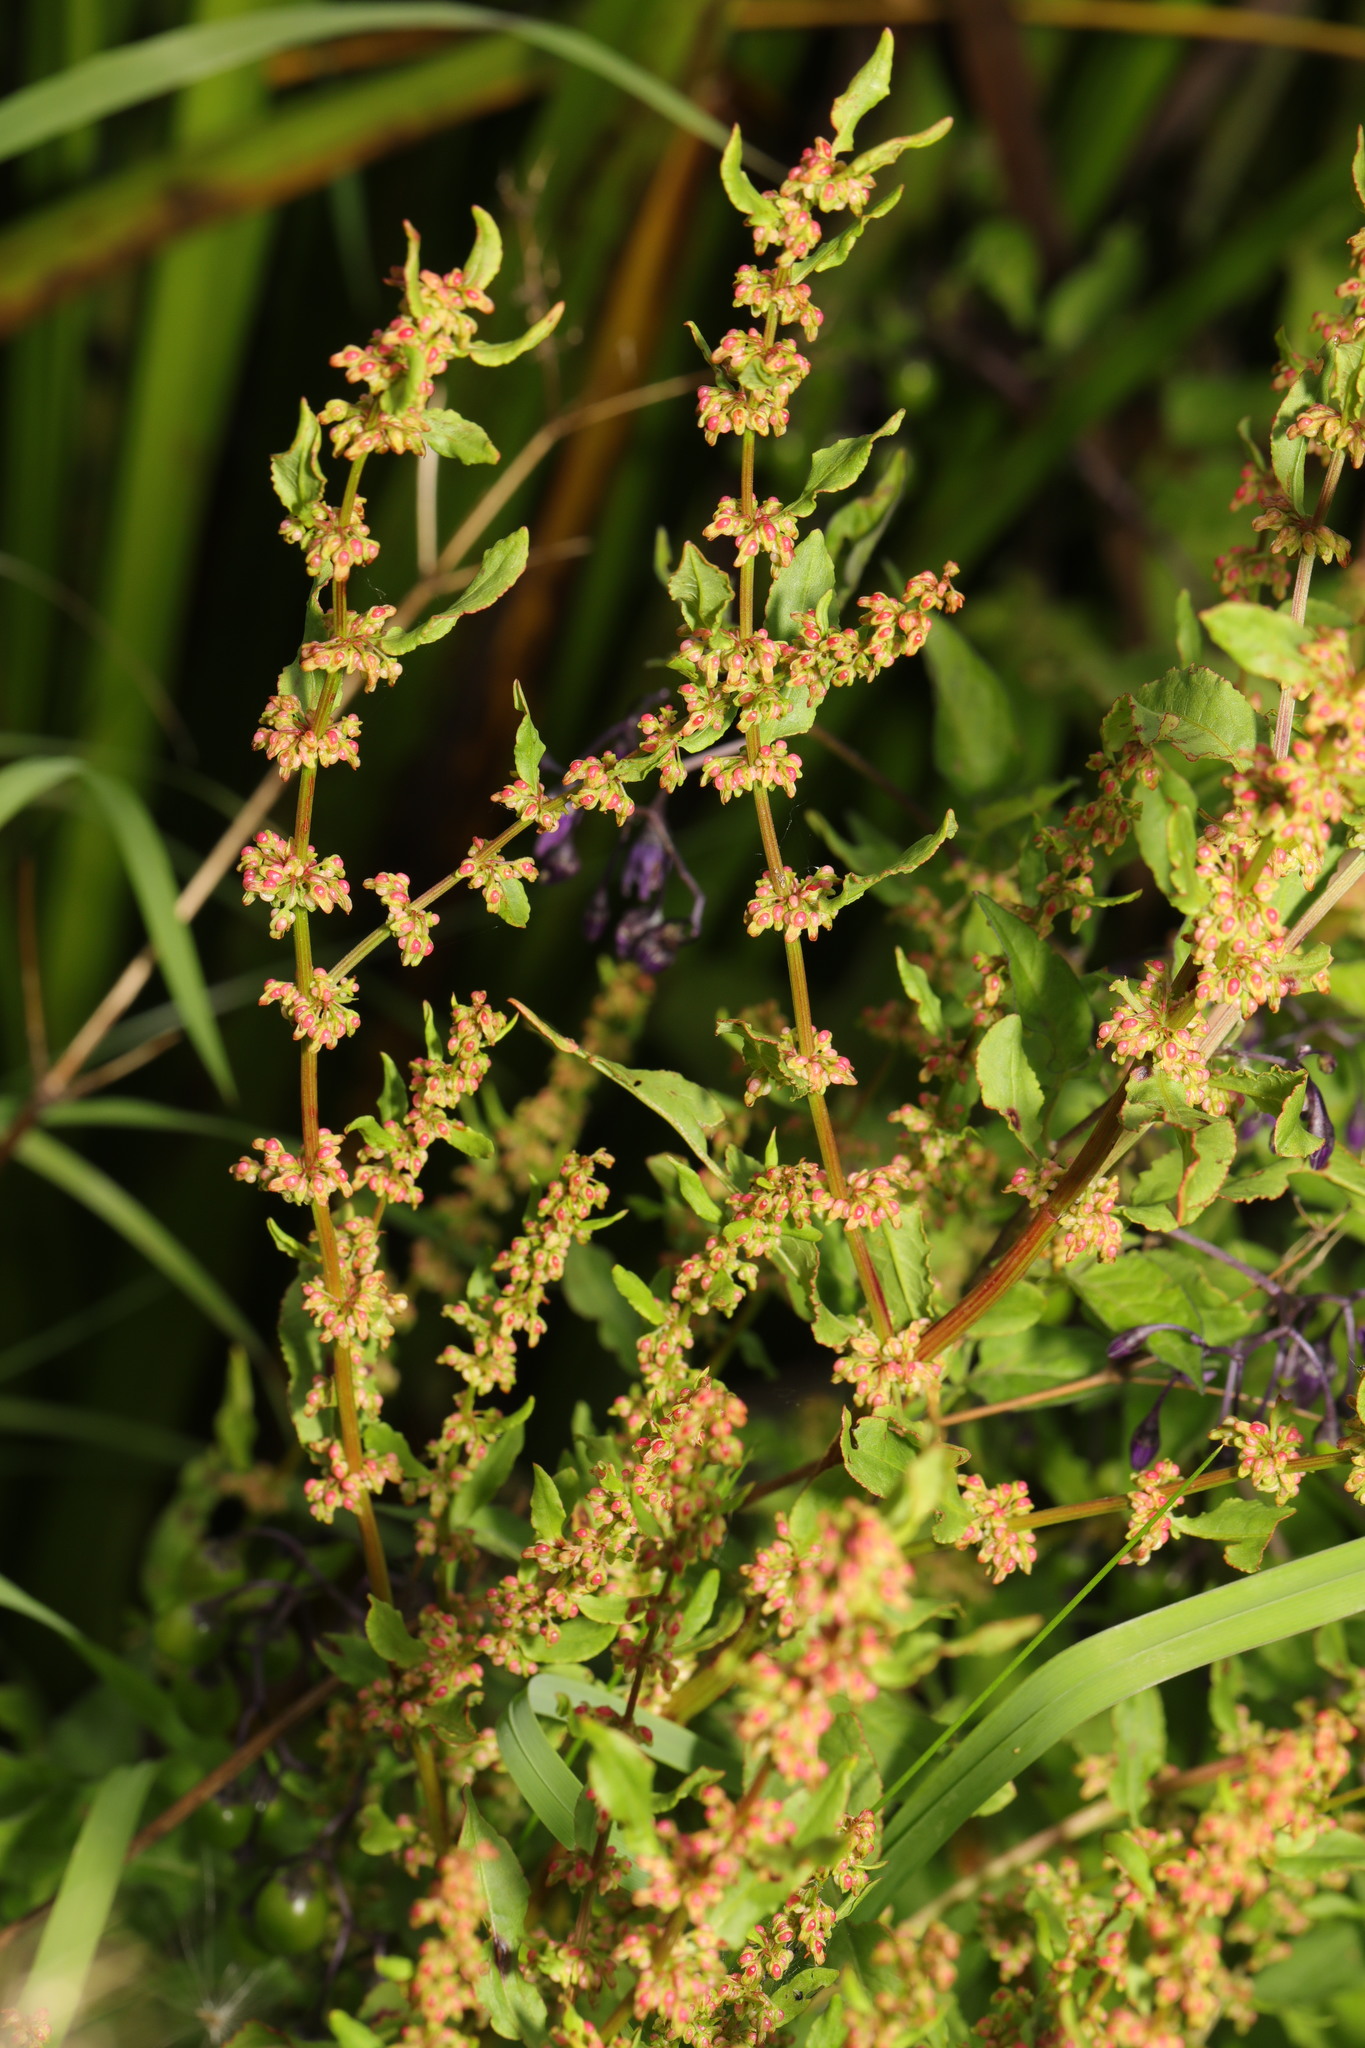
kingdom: Plantae
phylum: Tracheophyta
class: Magnoliopsida
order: Caryophyllales
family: Polygonaceae
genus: Rumex
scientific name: Rumex conglomeratus
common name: Clustered dock
